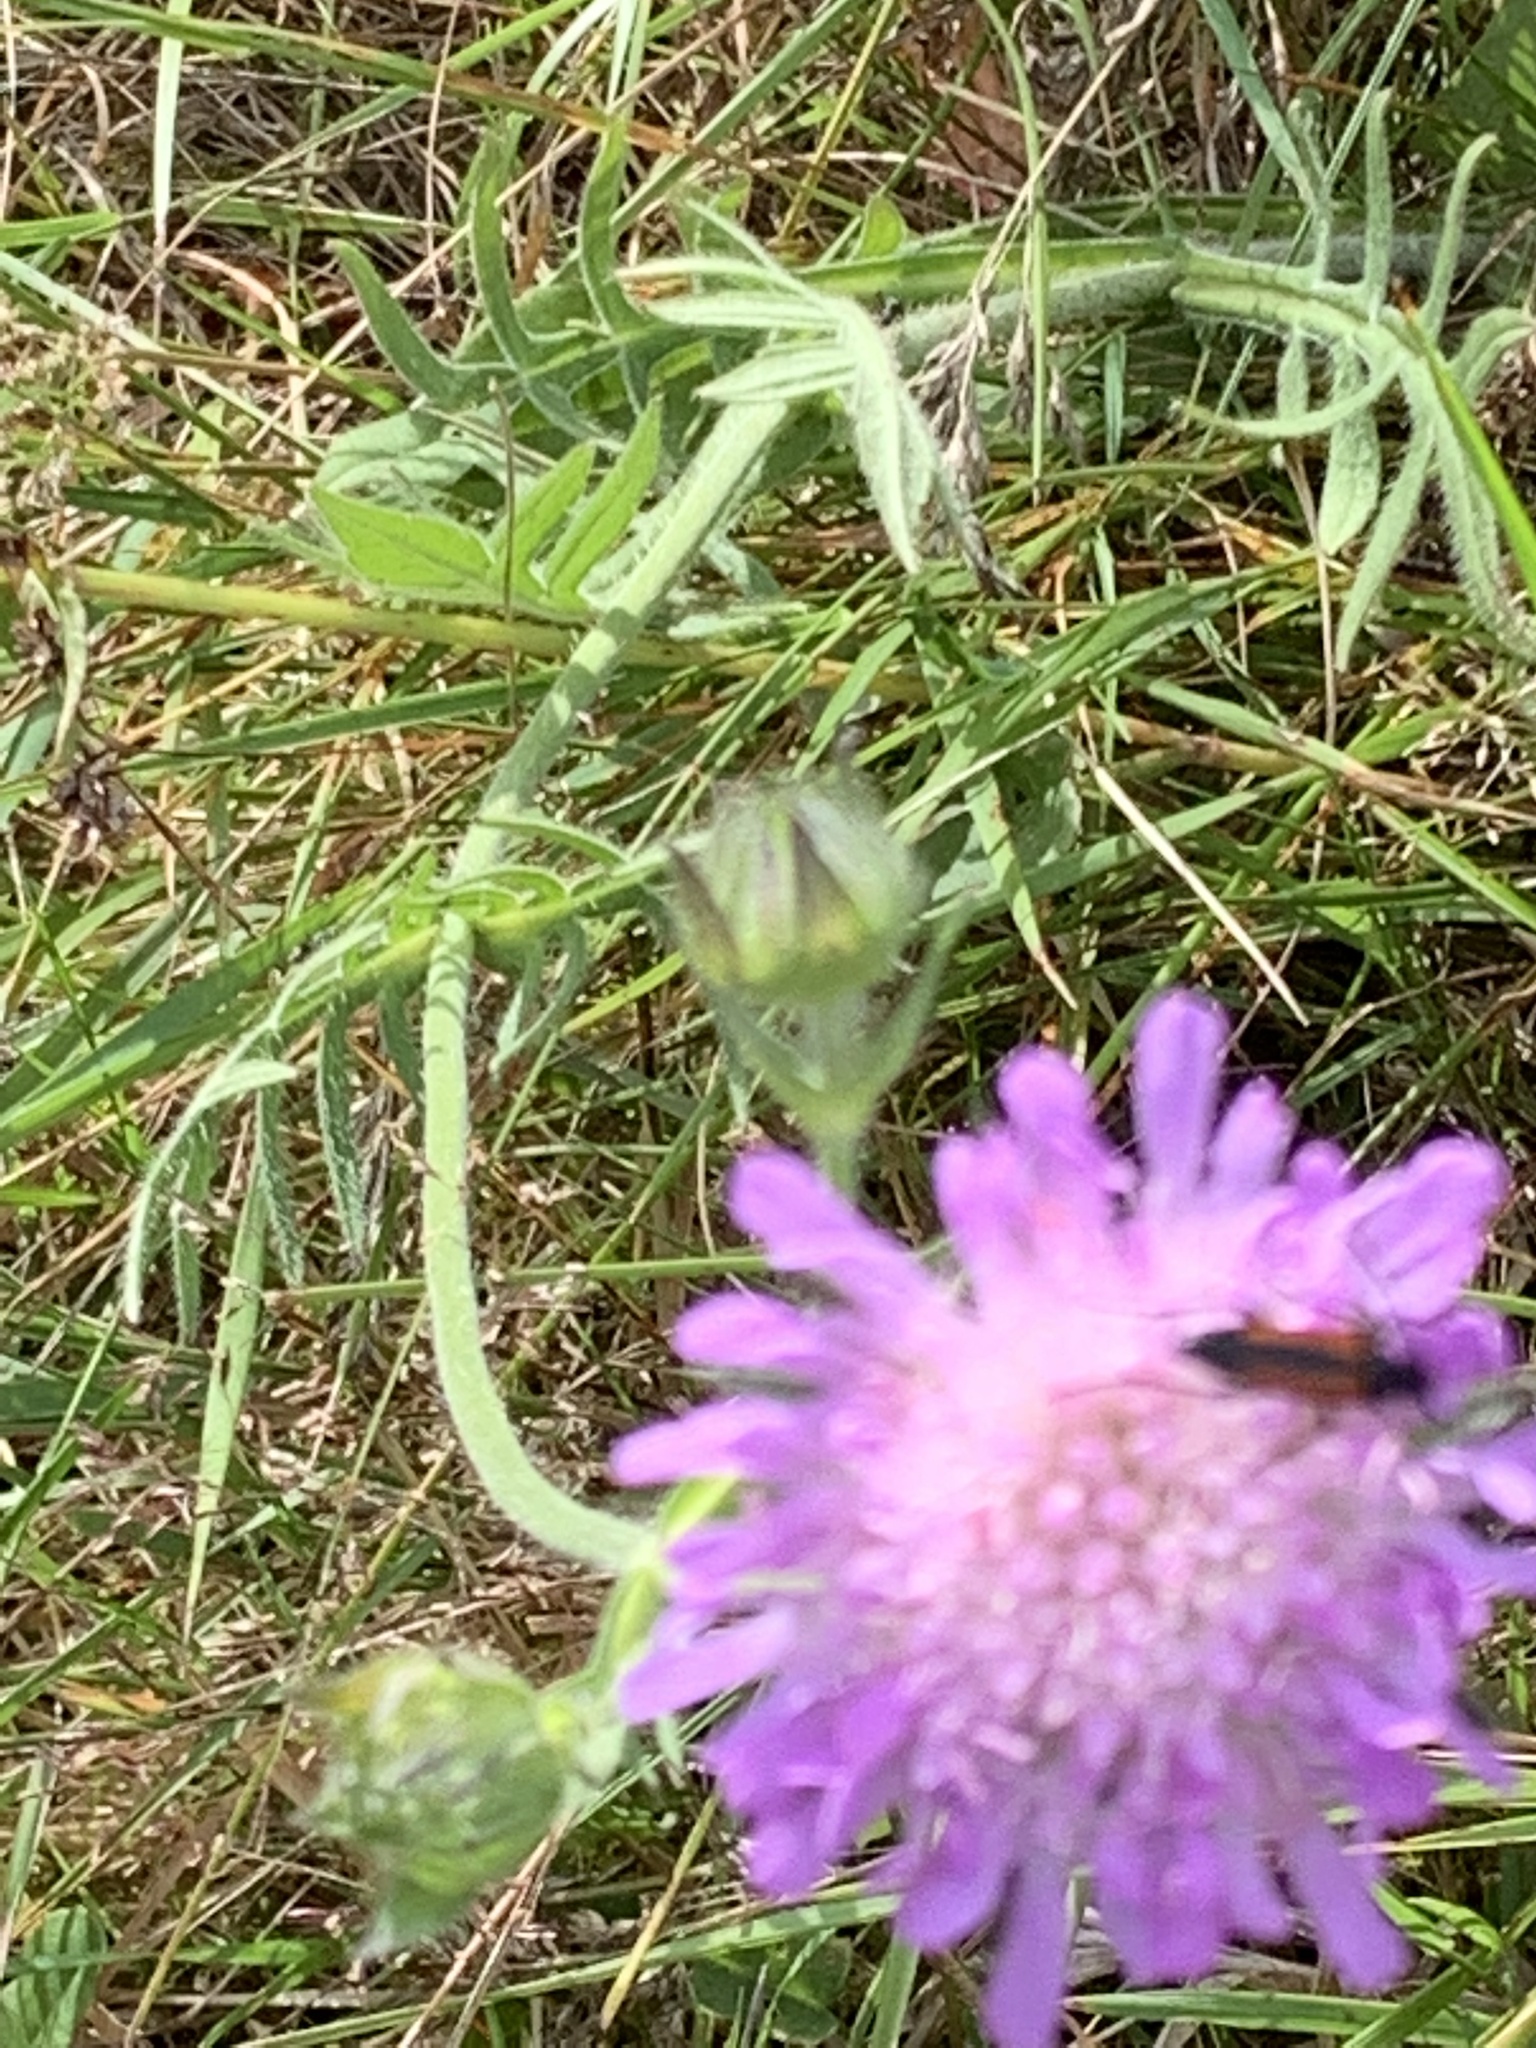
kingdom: Plantae
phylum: Tracheophyta
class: Magnoliopsida
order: Dipsacales
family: Caprifoliaceae
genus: Knautia
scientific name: Knautia arvensis
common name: Field scabiosa
